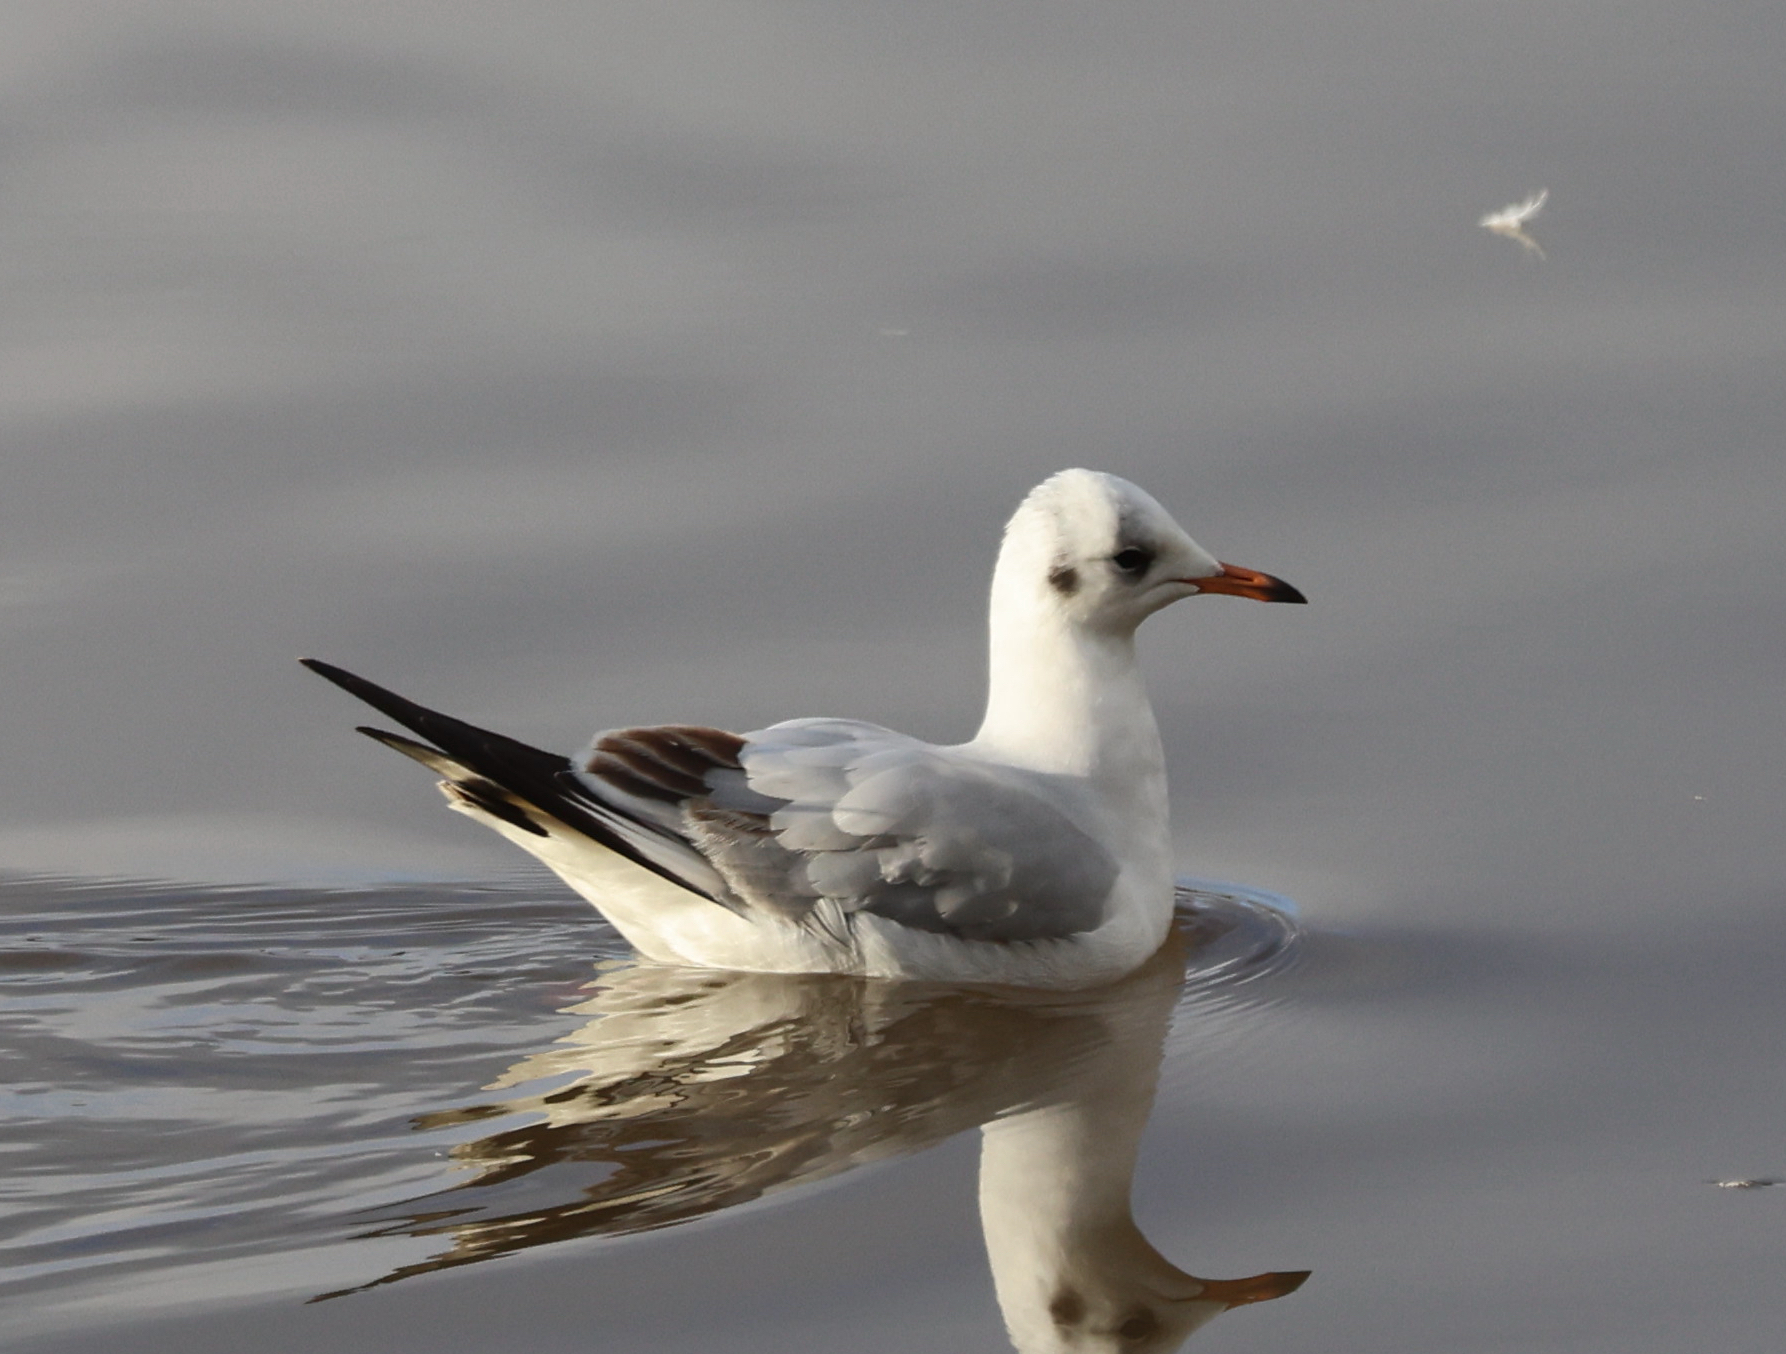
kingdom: Animalia
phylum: Chordata
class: Aves
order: Charadriiformes
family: Laridae
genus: Chroicocephalus
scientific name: Chroicocephalus ridibundus
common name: Black-headed gull
